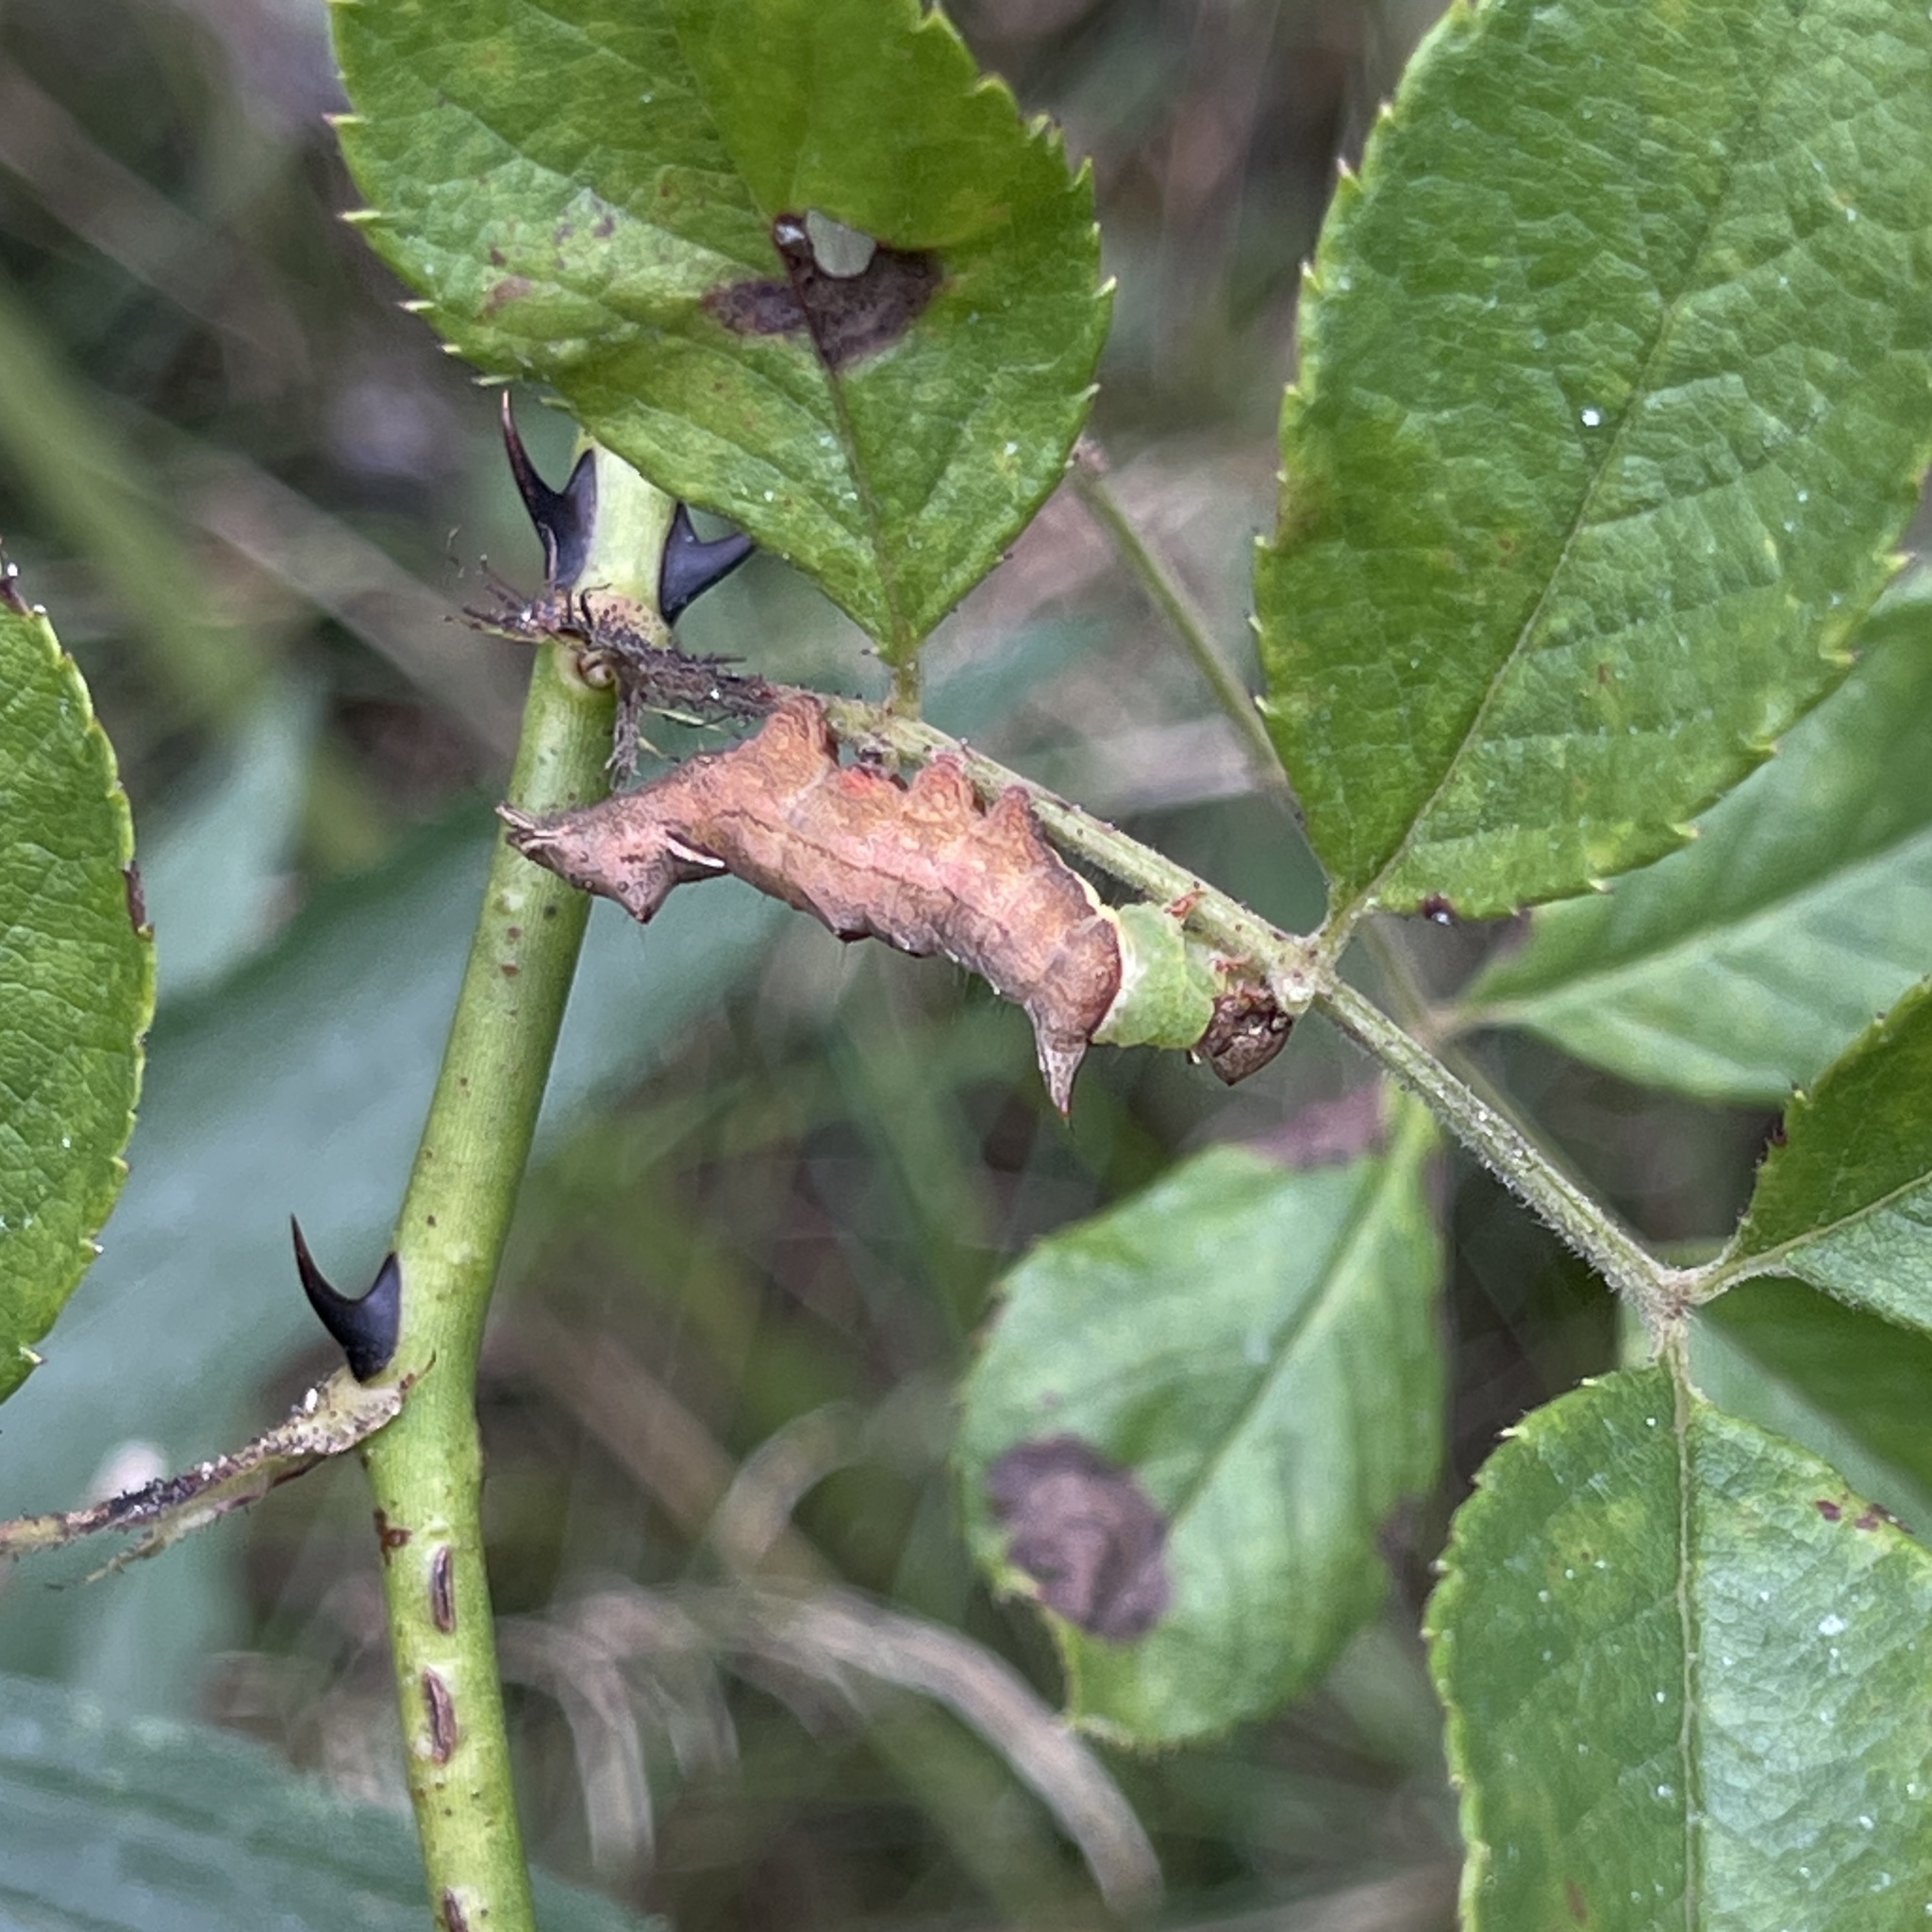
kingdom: Animalia
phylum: Arthropoda
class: Insecta
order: Lepidoptera
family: Notodontidae
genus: Schizura
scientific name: Schizura
